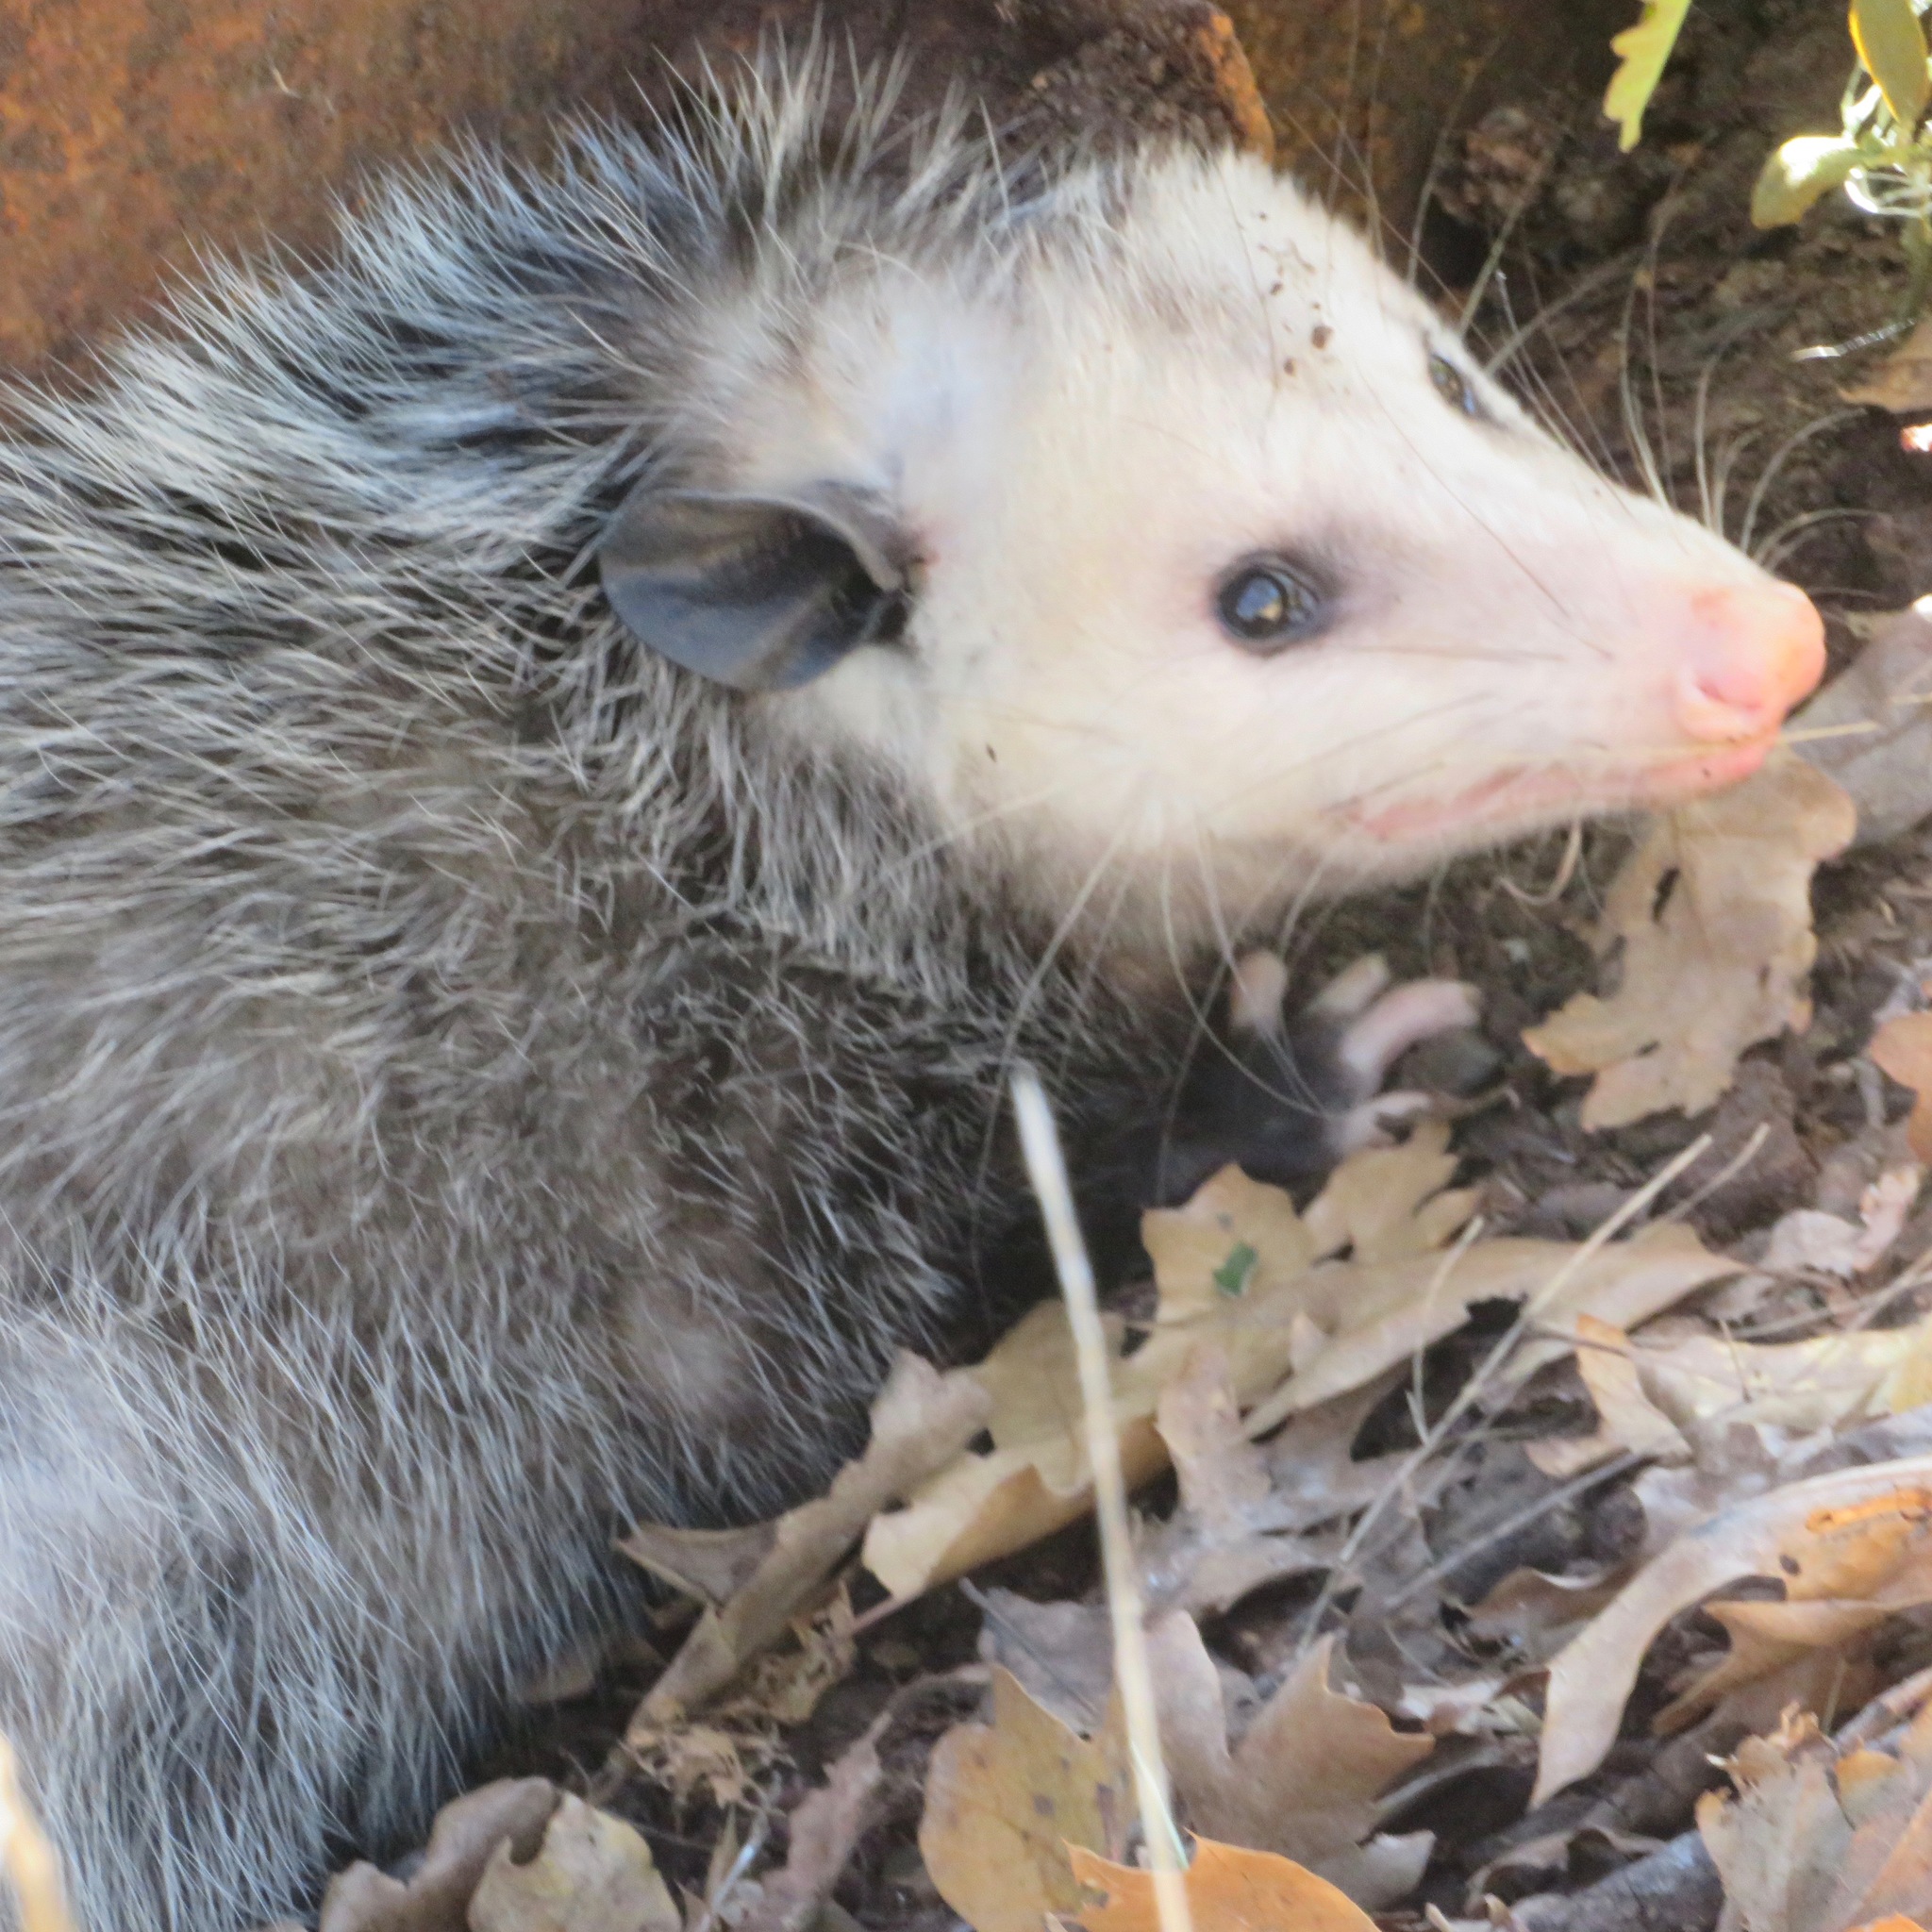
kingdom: Animalia
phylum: Chordata
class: Mammalia
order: Didelphimorphia
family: Didelphidae
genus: Didelphis
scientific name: Didelphis virginiana
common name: Virginia opossum
